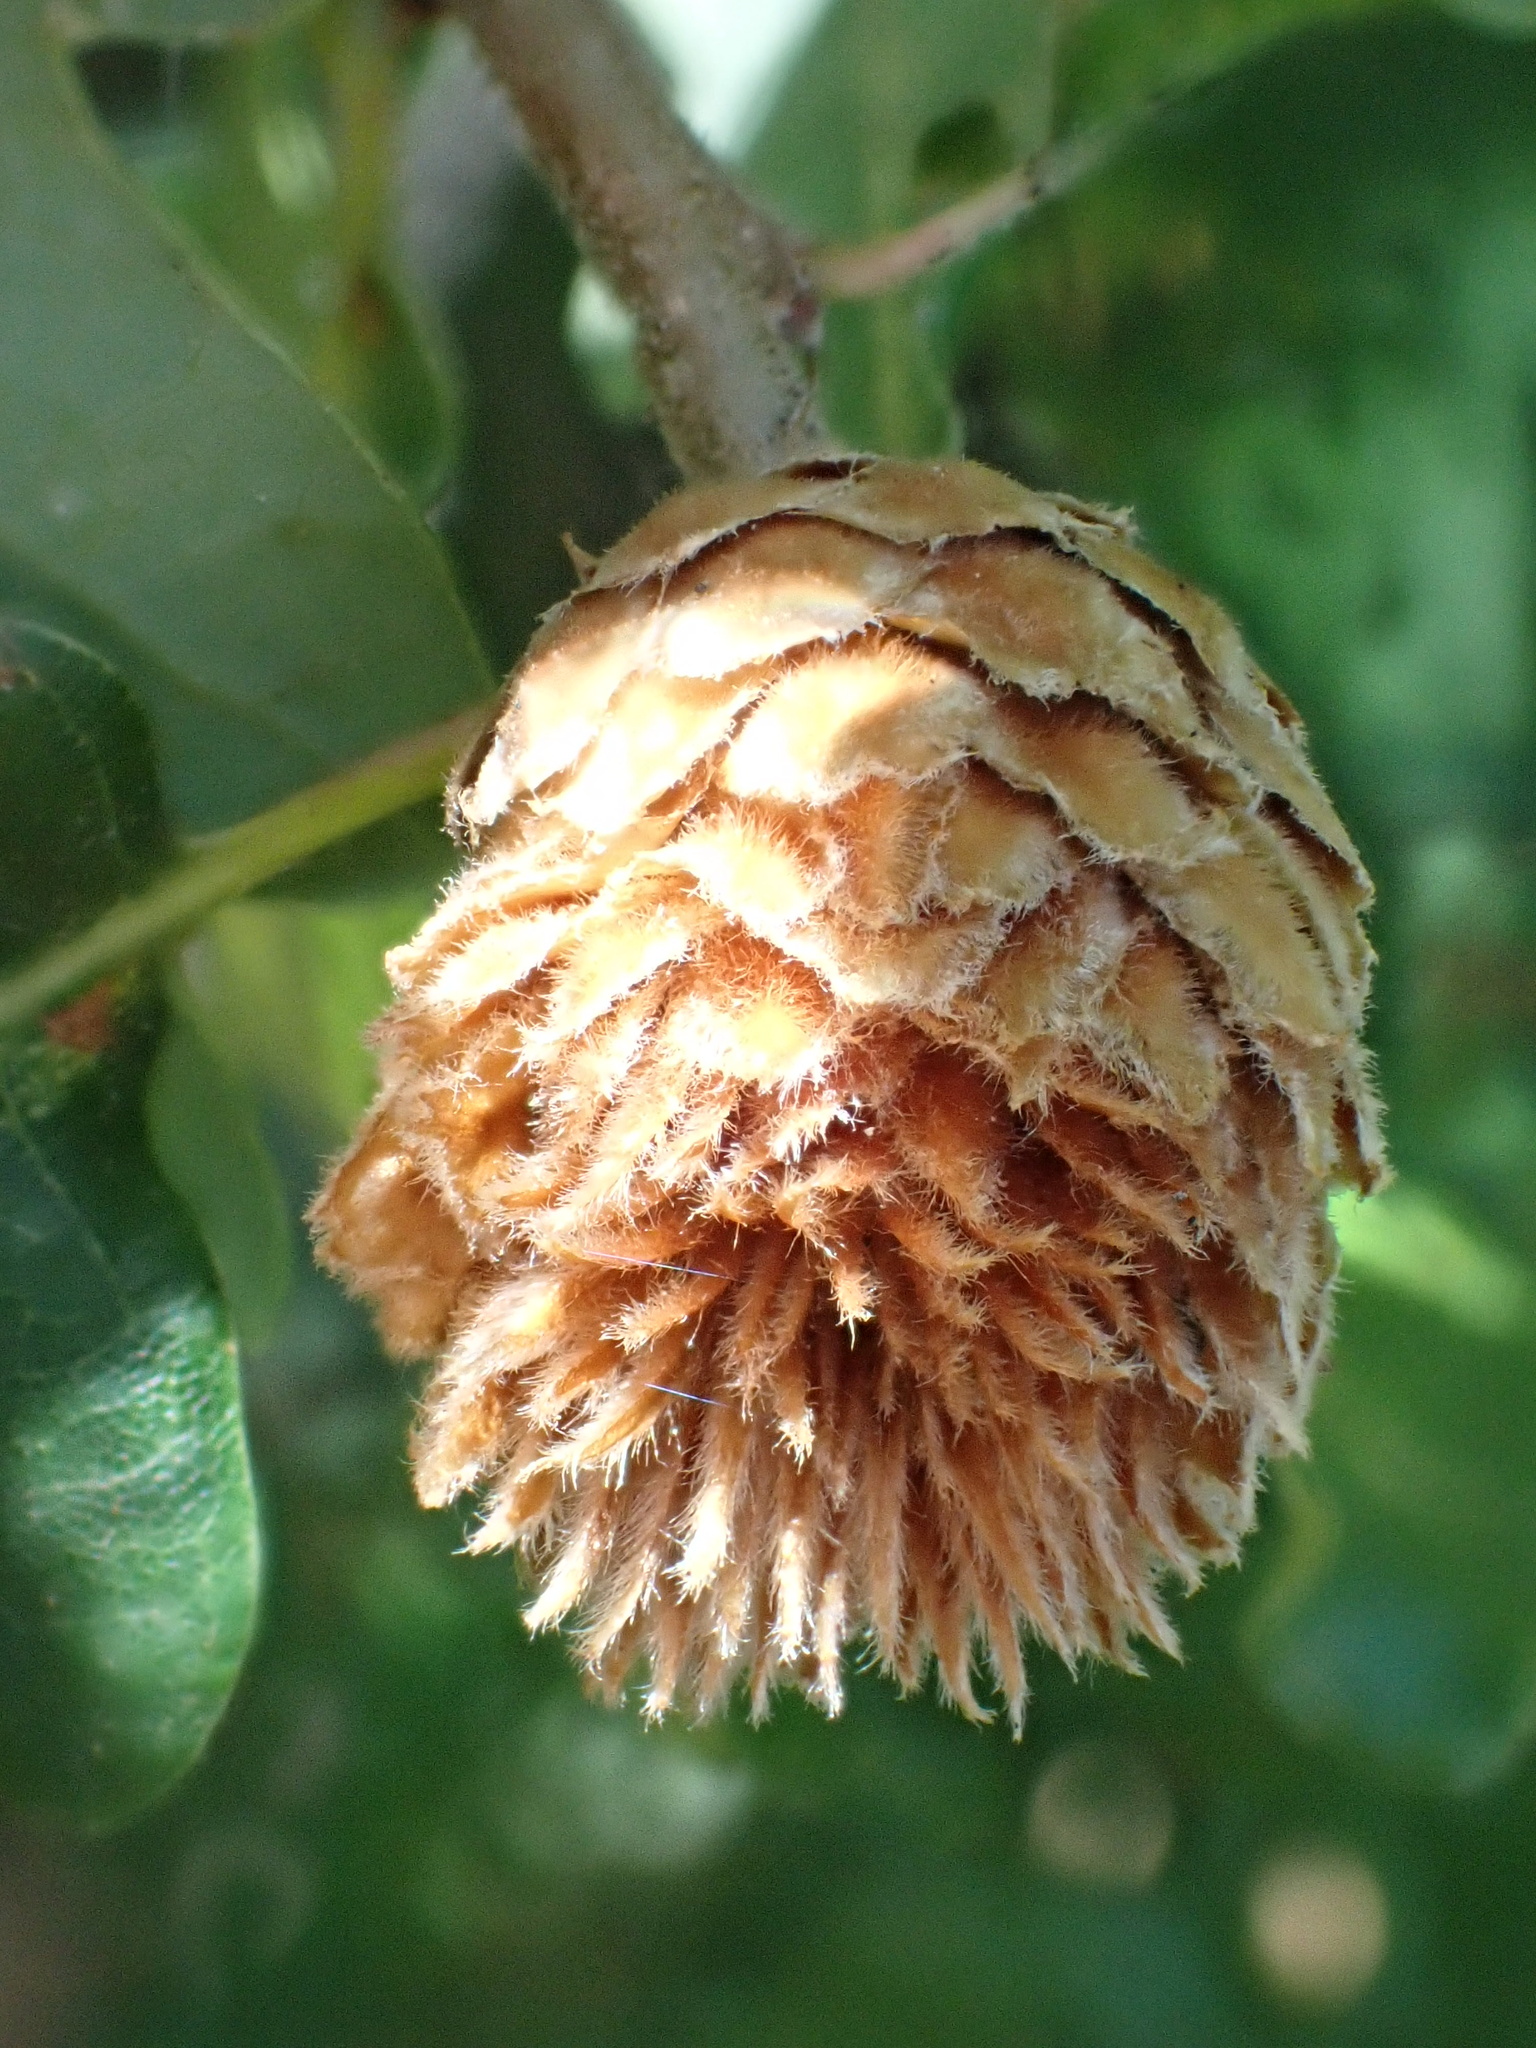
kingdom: Animalia
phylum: Arthropoda
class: Insecta
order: Hymenoptera
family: Cynipidae
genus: Andricus
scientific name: Andricus foecundatrix
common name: Artichoke gall
